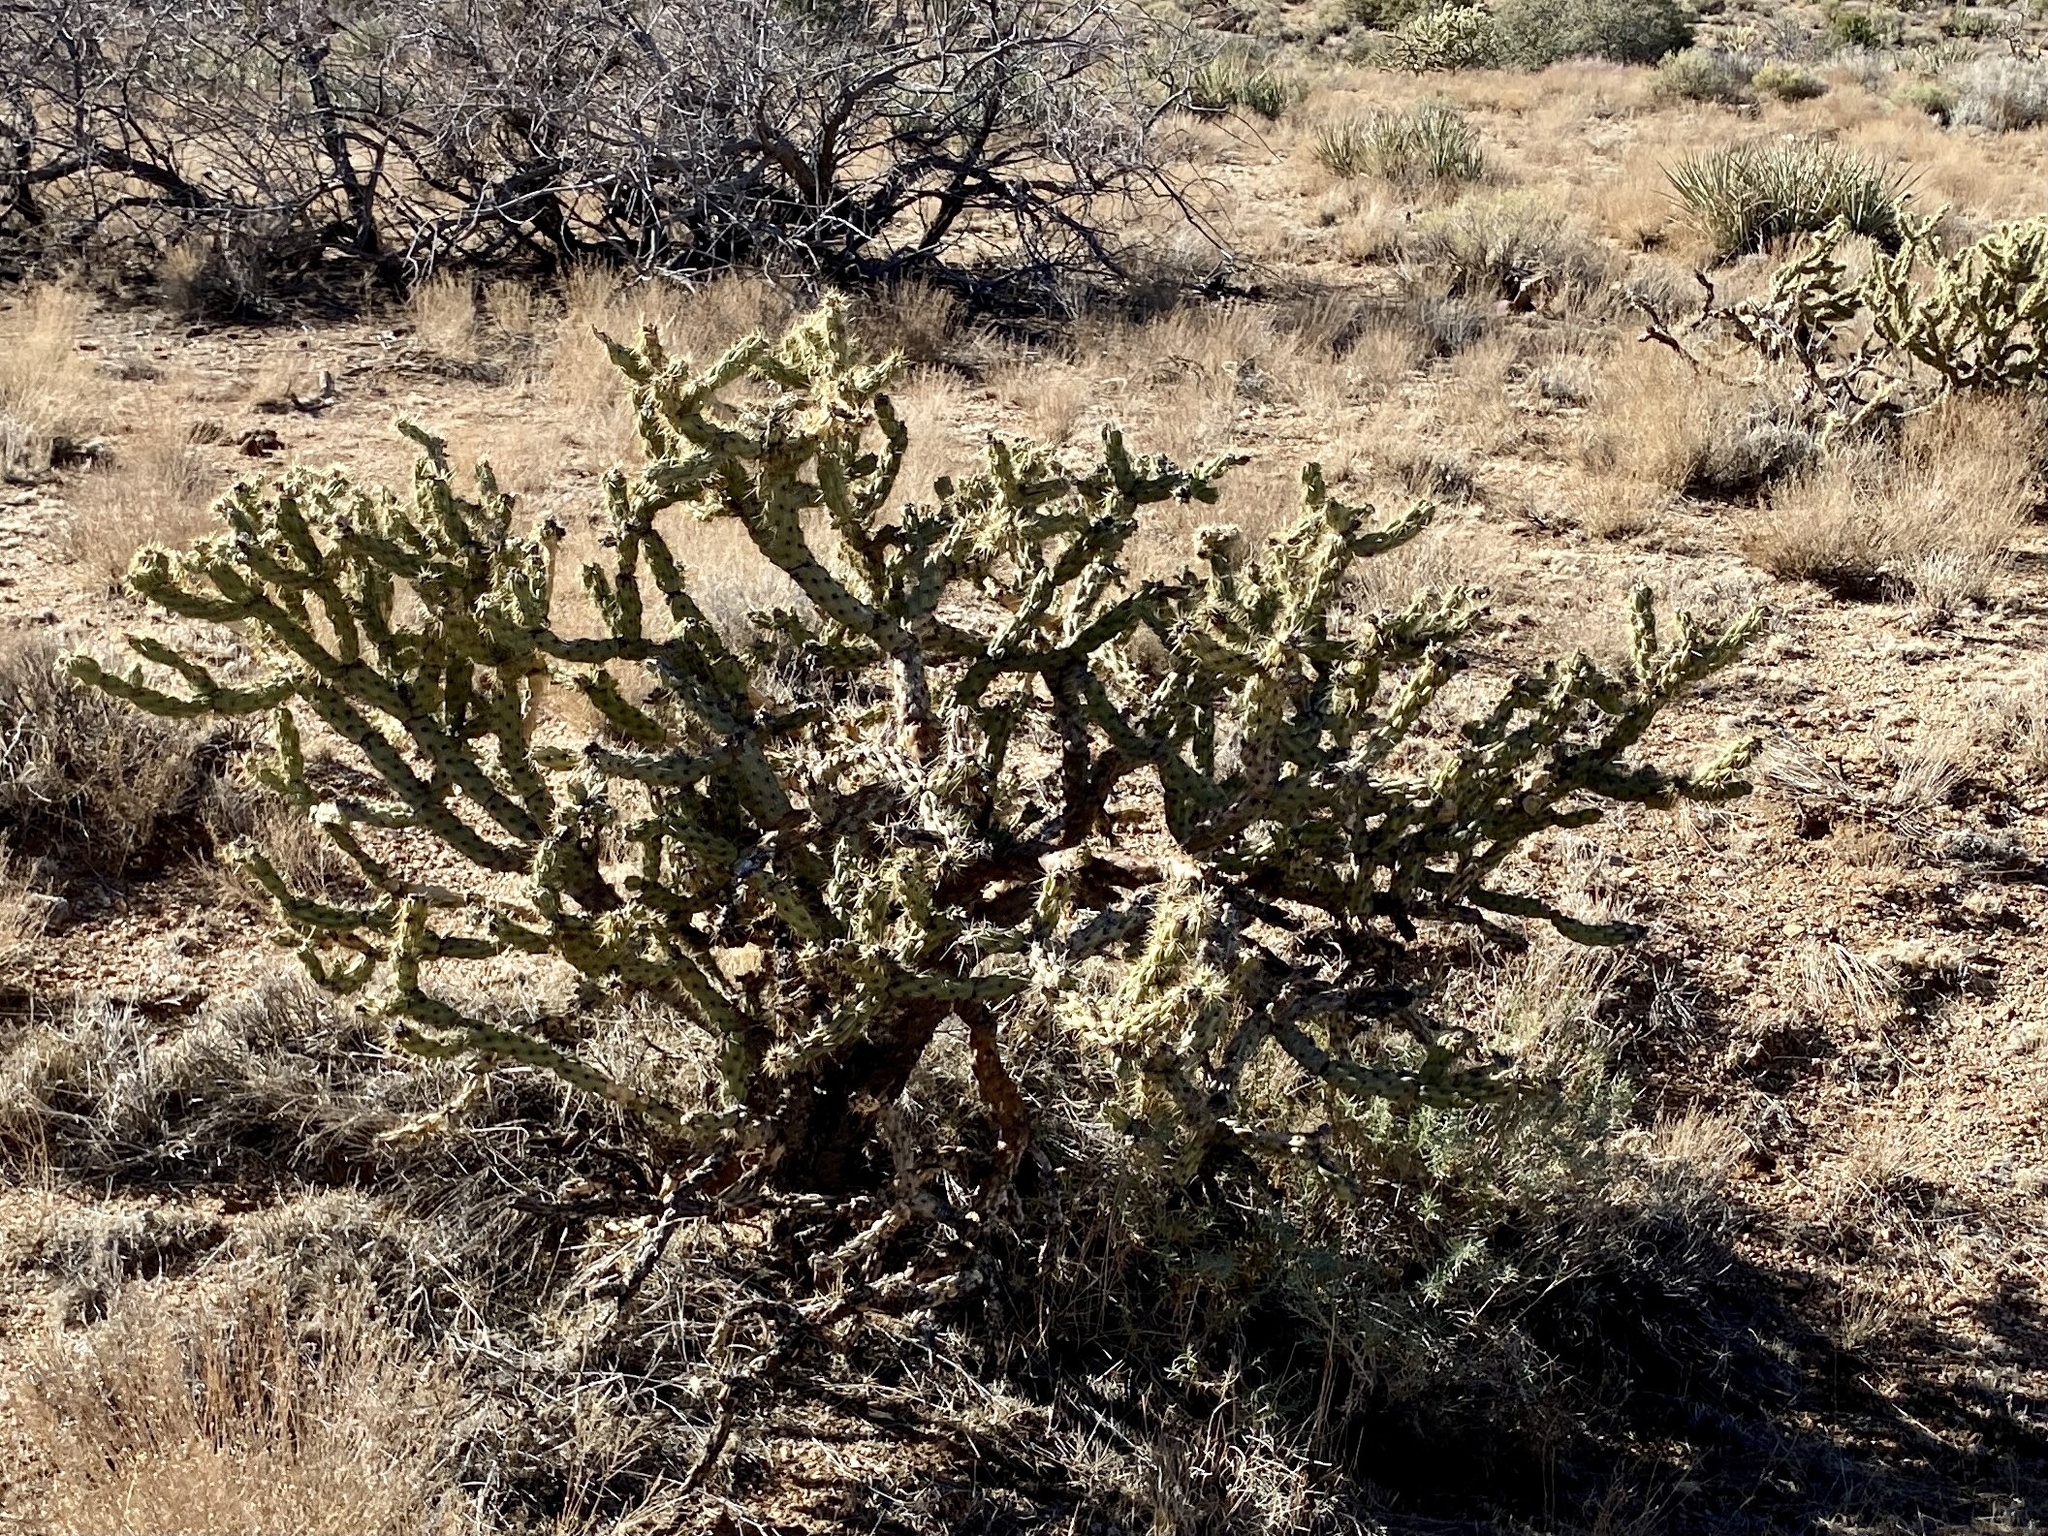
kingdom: Plantae
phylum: Tracheophyta
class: Magnoliopsida
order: Caryophyllales
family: Cactaceae
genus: Cylindropuntia
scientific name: Cylindropuntia acanthocarpa
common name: Buckhorn cholla
